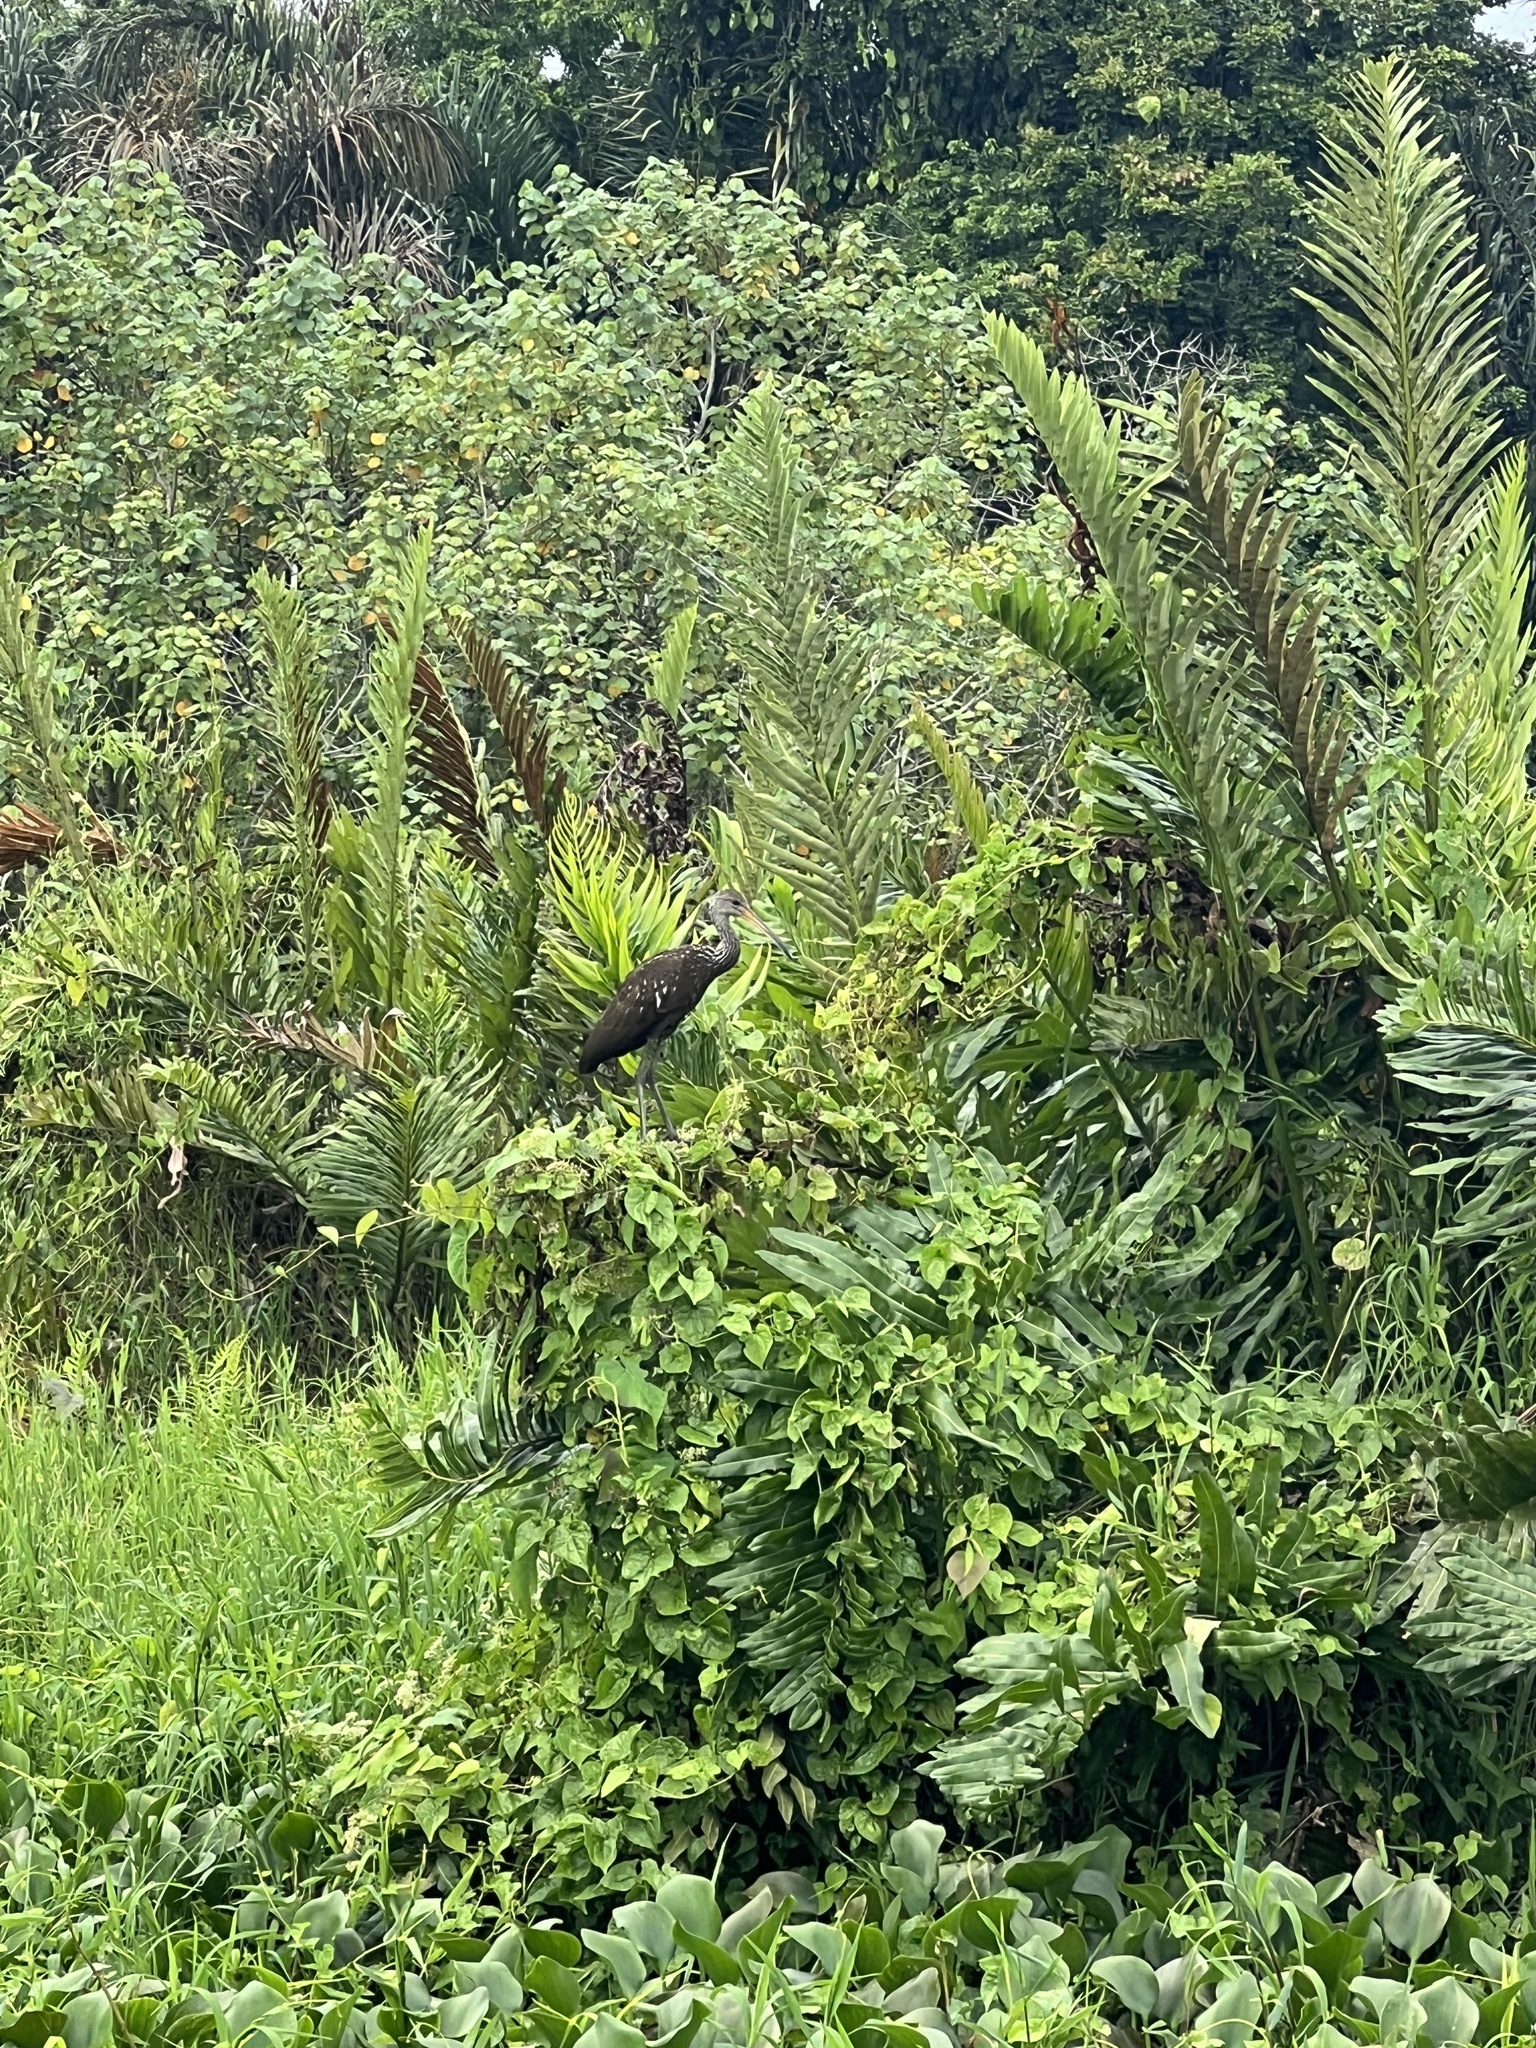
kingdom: Animalia
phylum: Chordata
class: Aves
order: Gruiformes
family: Aramidae
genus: Aramus
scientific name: Aramus guarauna
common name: Limpkin
